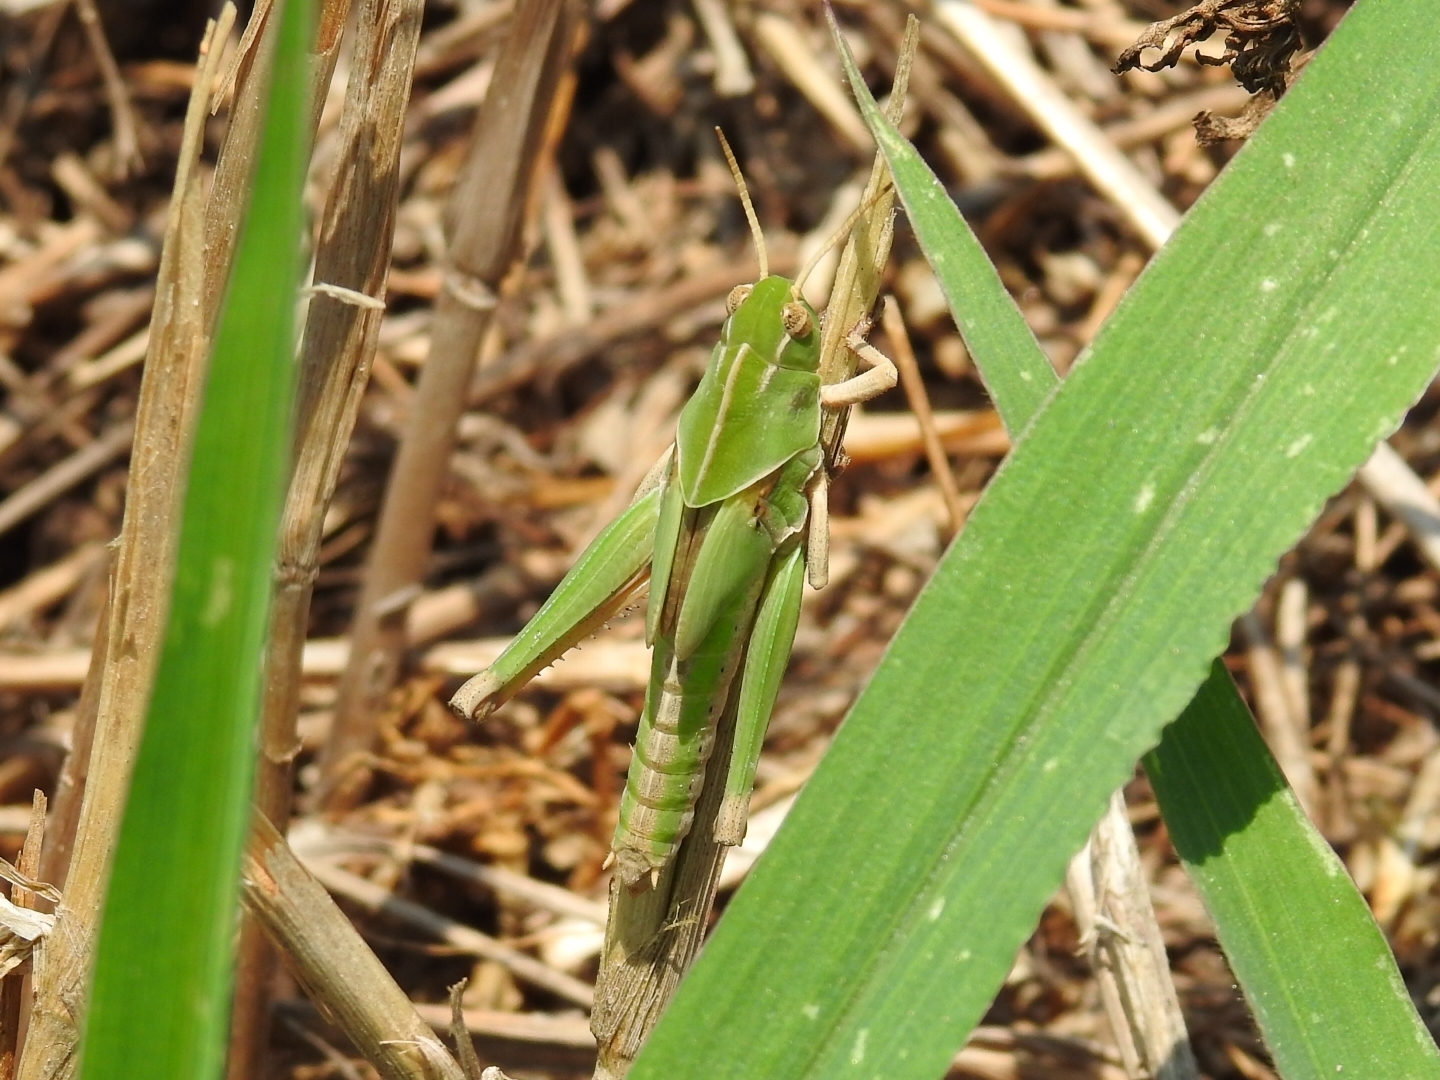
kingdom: Animalia
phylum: Arthropoda
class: Insecta
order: Orthoptera
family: Acrididae
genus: Locusta
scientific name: Locusta migratoria
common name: Migratory locust
